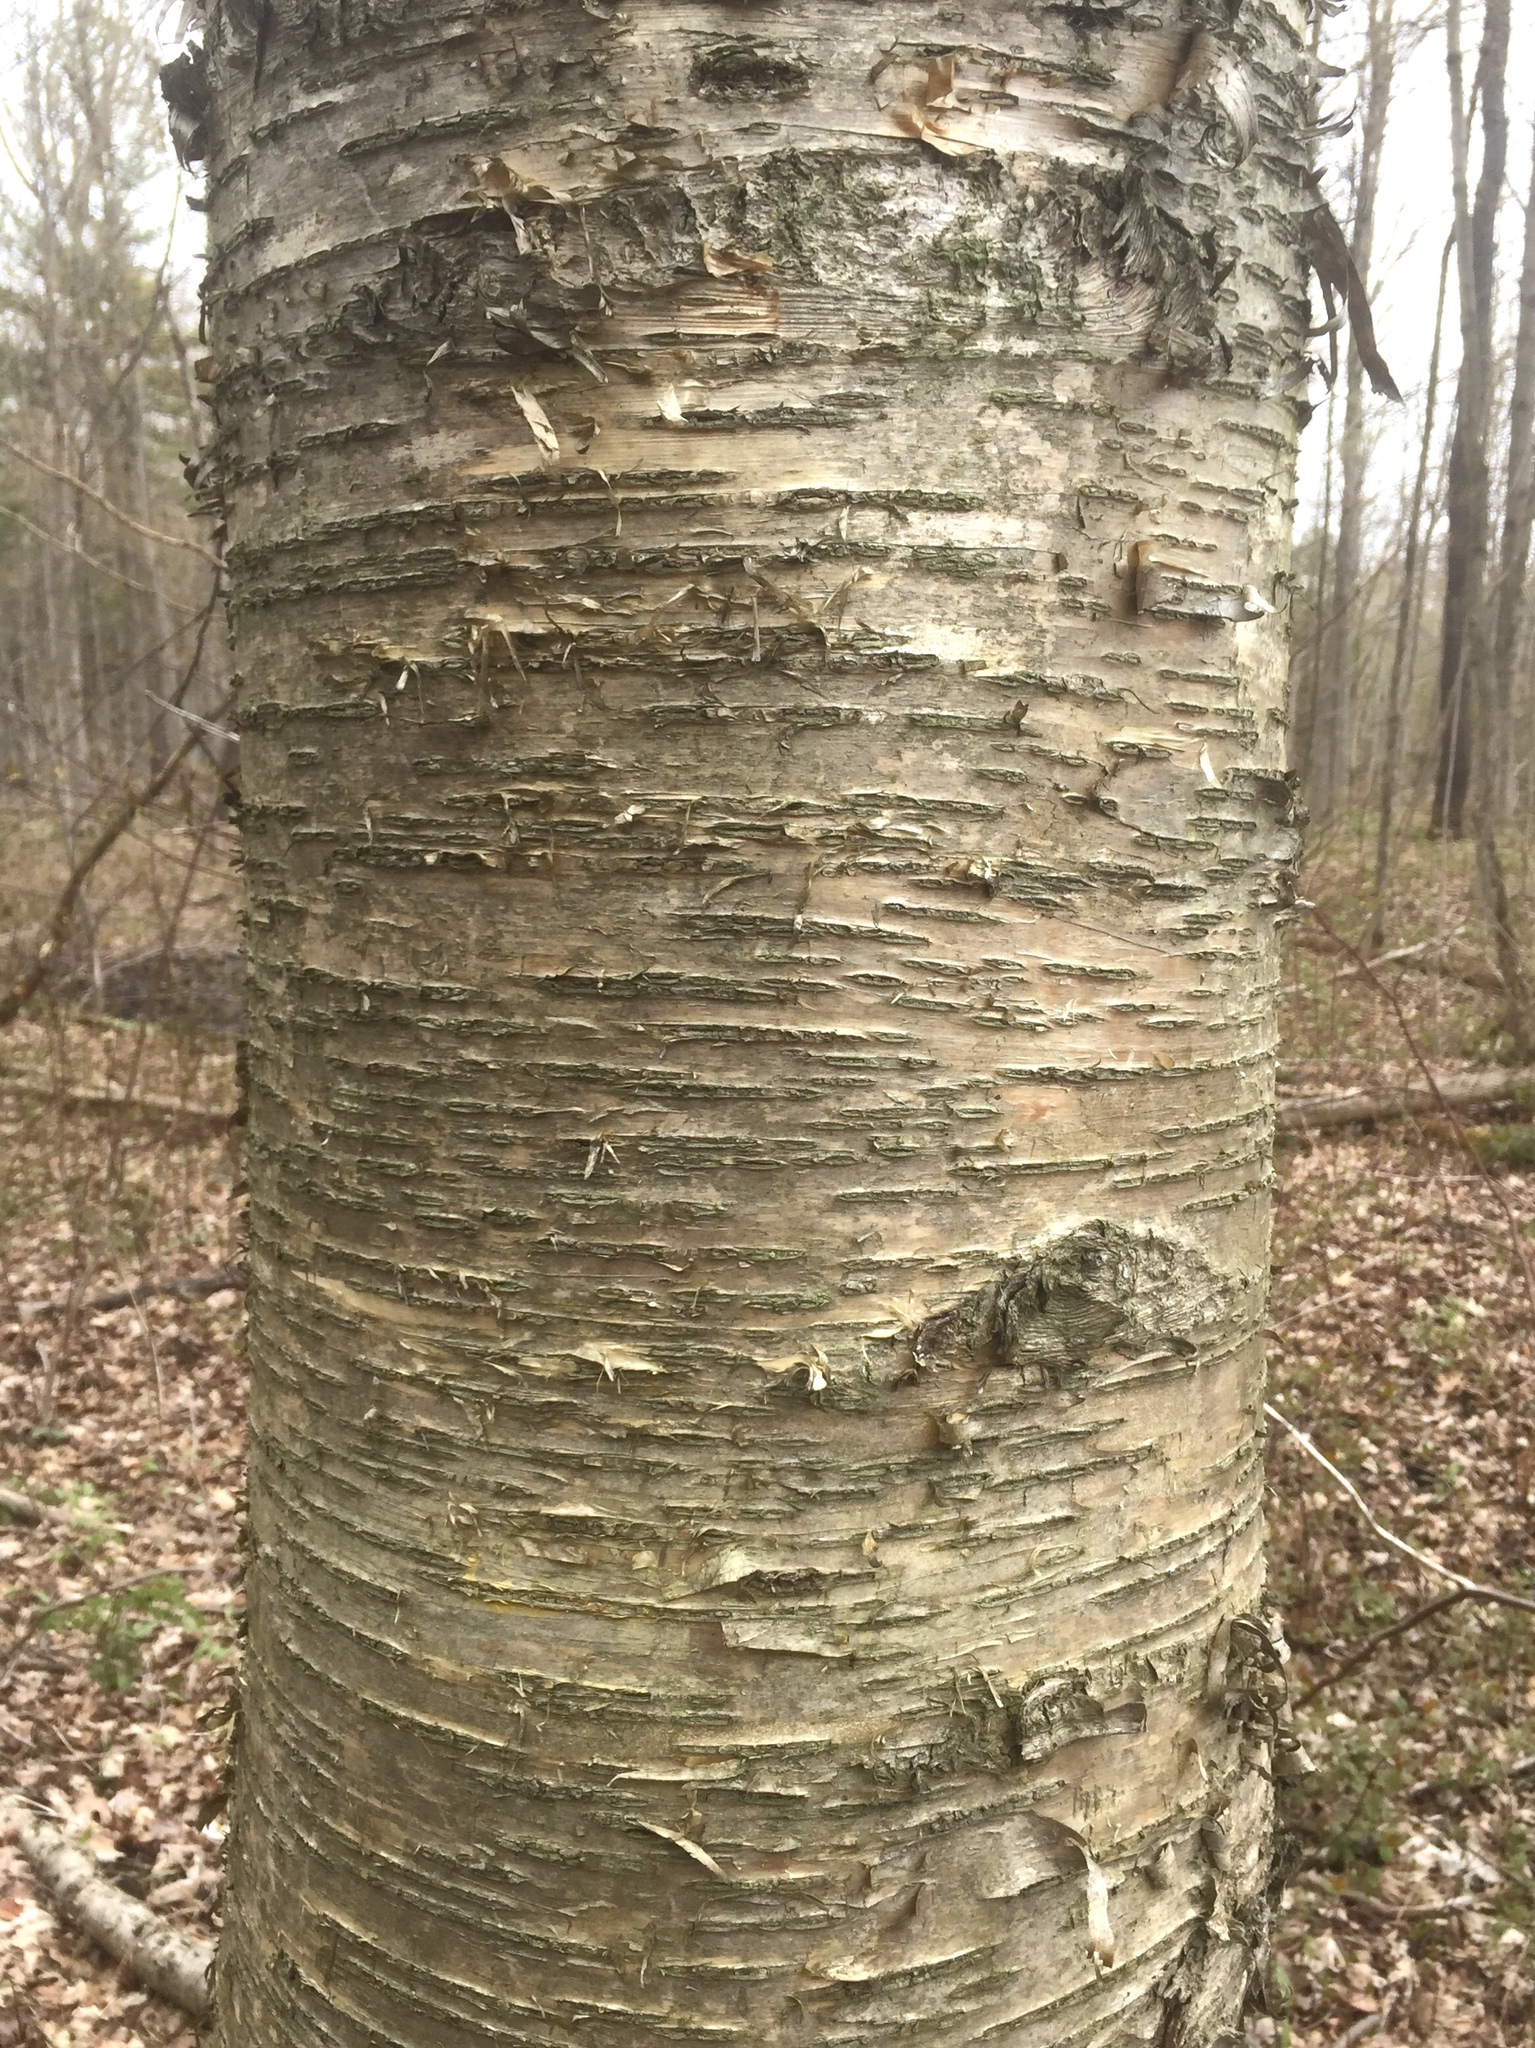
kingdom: Plantae
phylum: Tracheophyta
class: Magnoliopsida
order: Fagales
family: Betulaceae
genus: Betula
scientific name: Betula alleghaniensis
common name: Yellow birch
